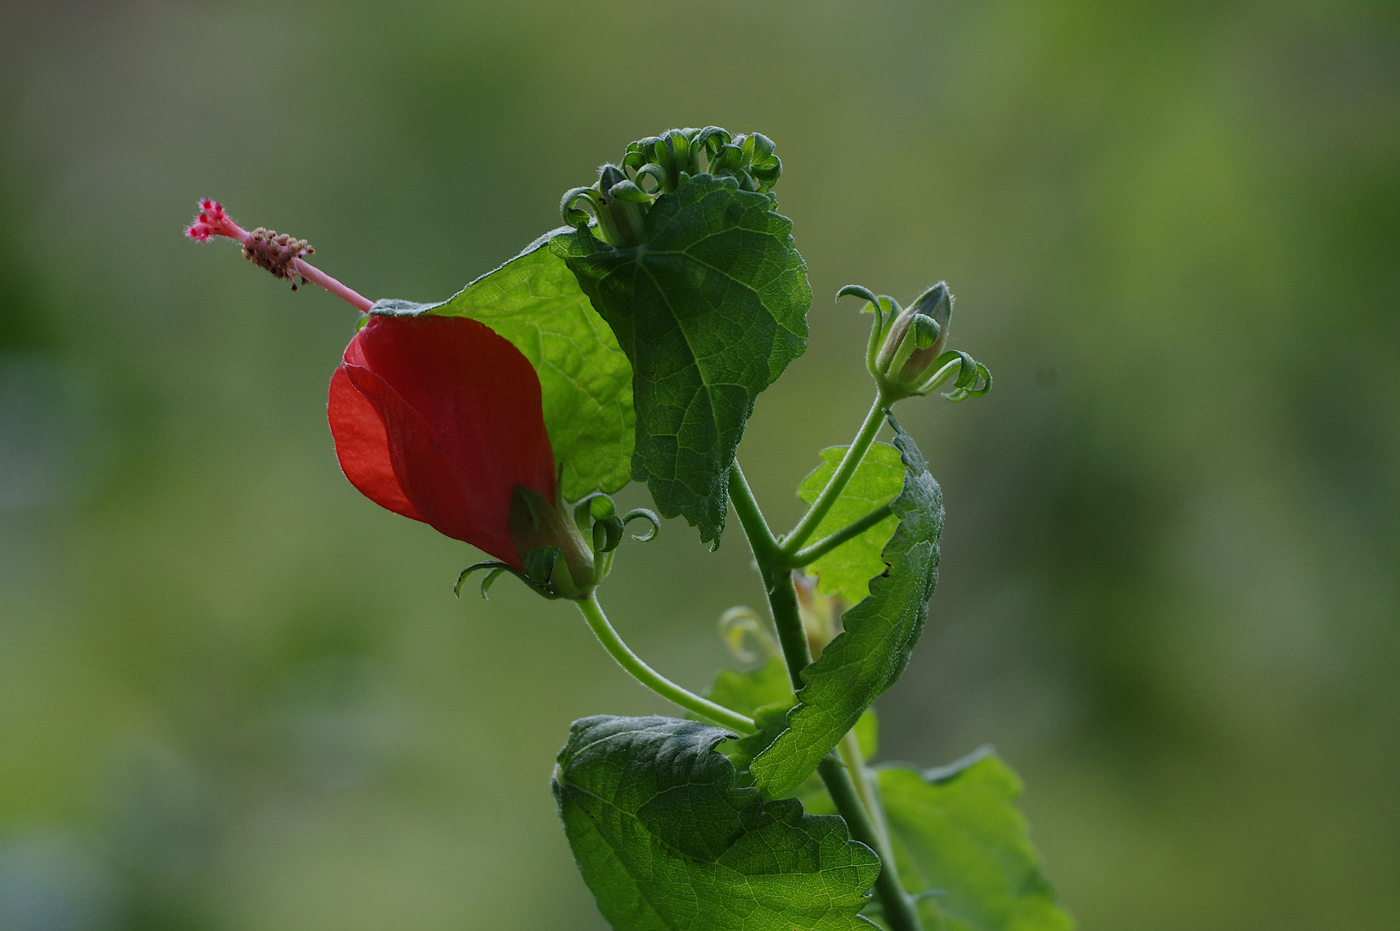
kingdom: Plantae
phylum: Tracheophyta
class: Magnoliopsida
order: Malvales
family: Malvaceae
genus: Malvaviscus
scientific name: Malvaviscus arboreus
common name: Wax mallow
